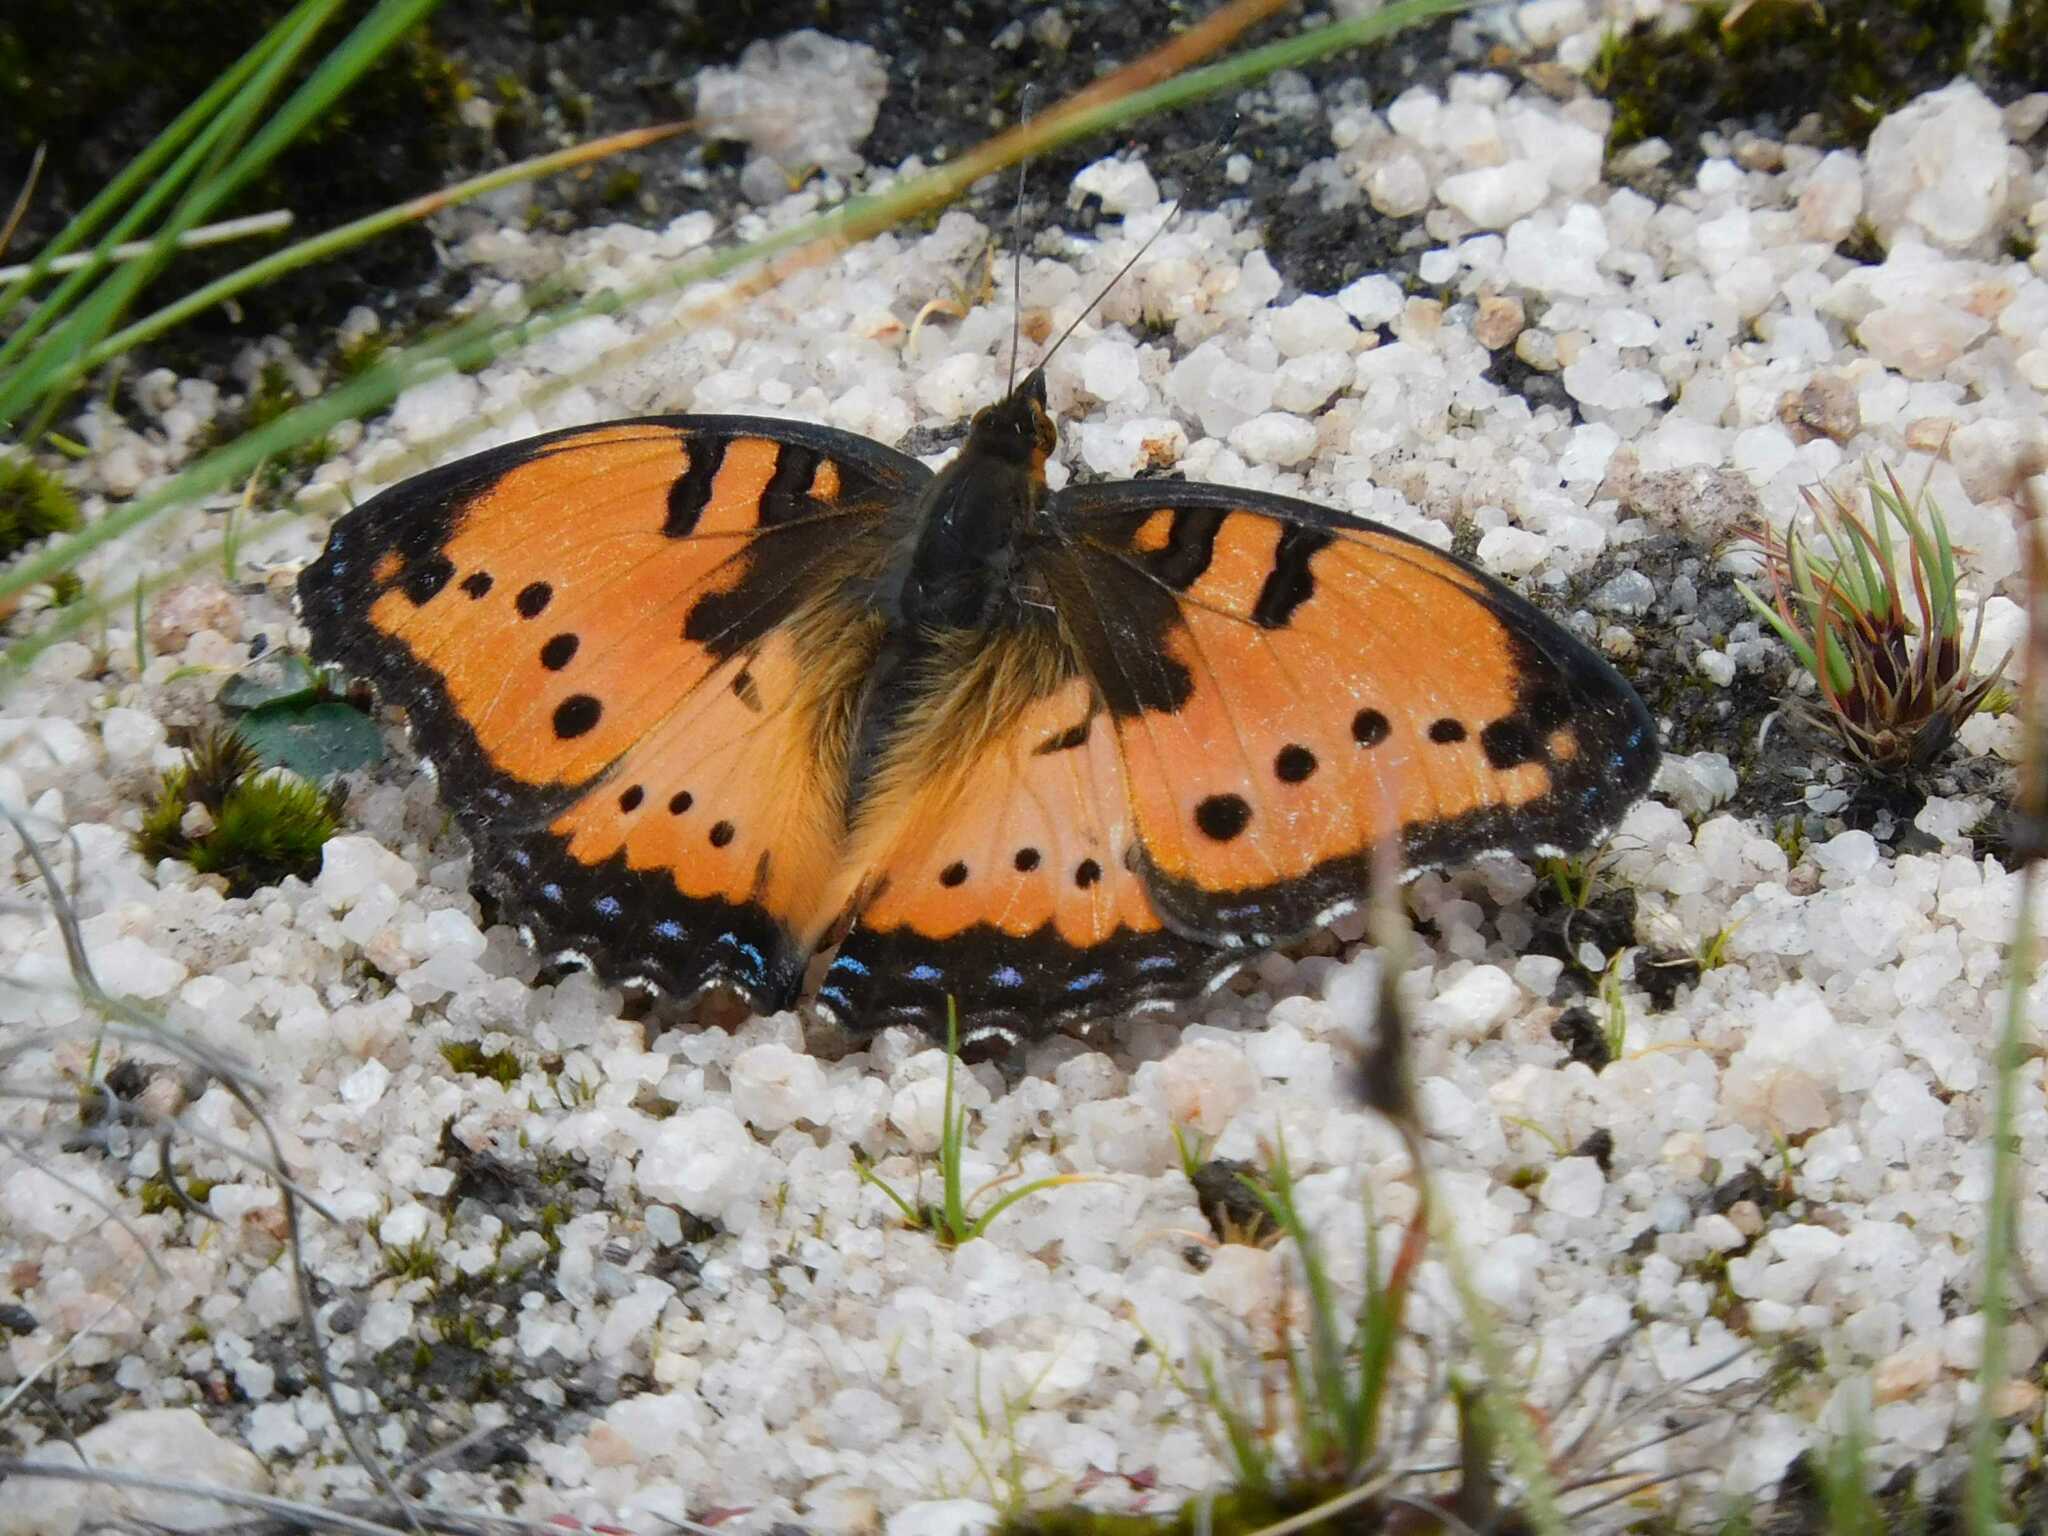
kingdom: Animalia
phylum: Arthropoda
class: Insecta
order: Lepidoptera
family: Nymphalidae
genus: Precis
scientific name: Precis octavia
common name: Gaudy commodore
